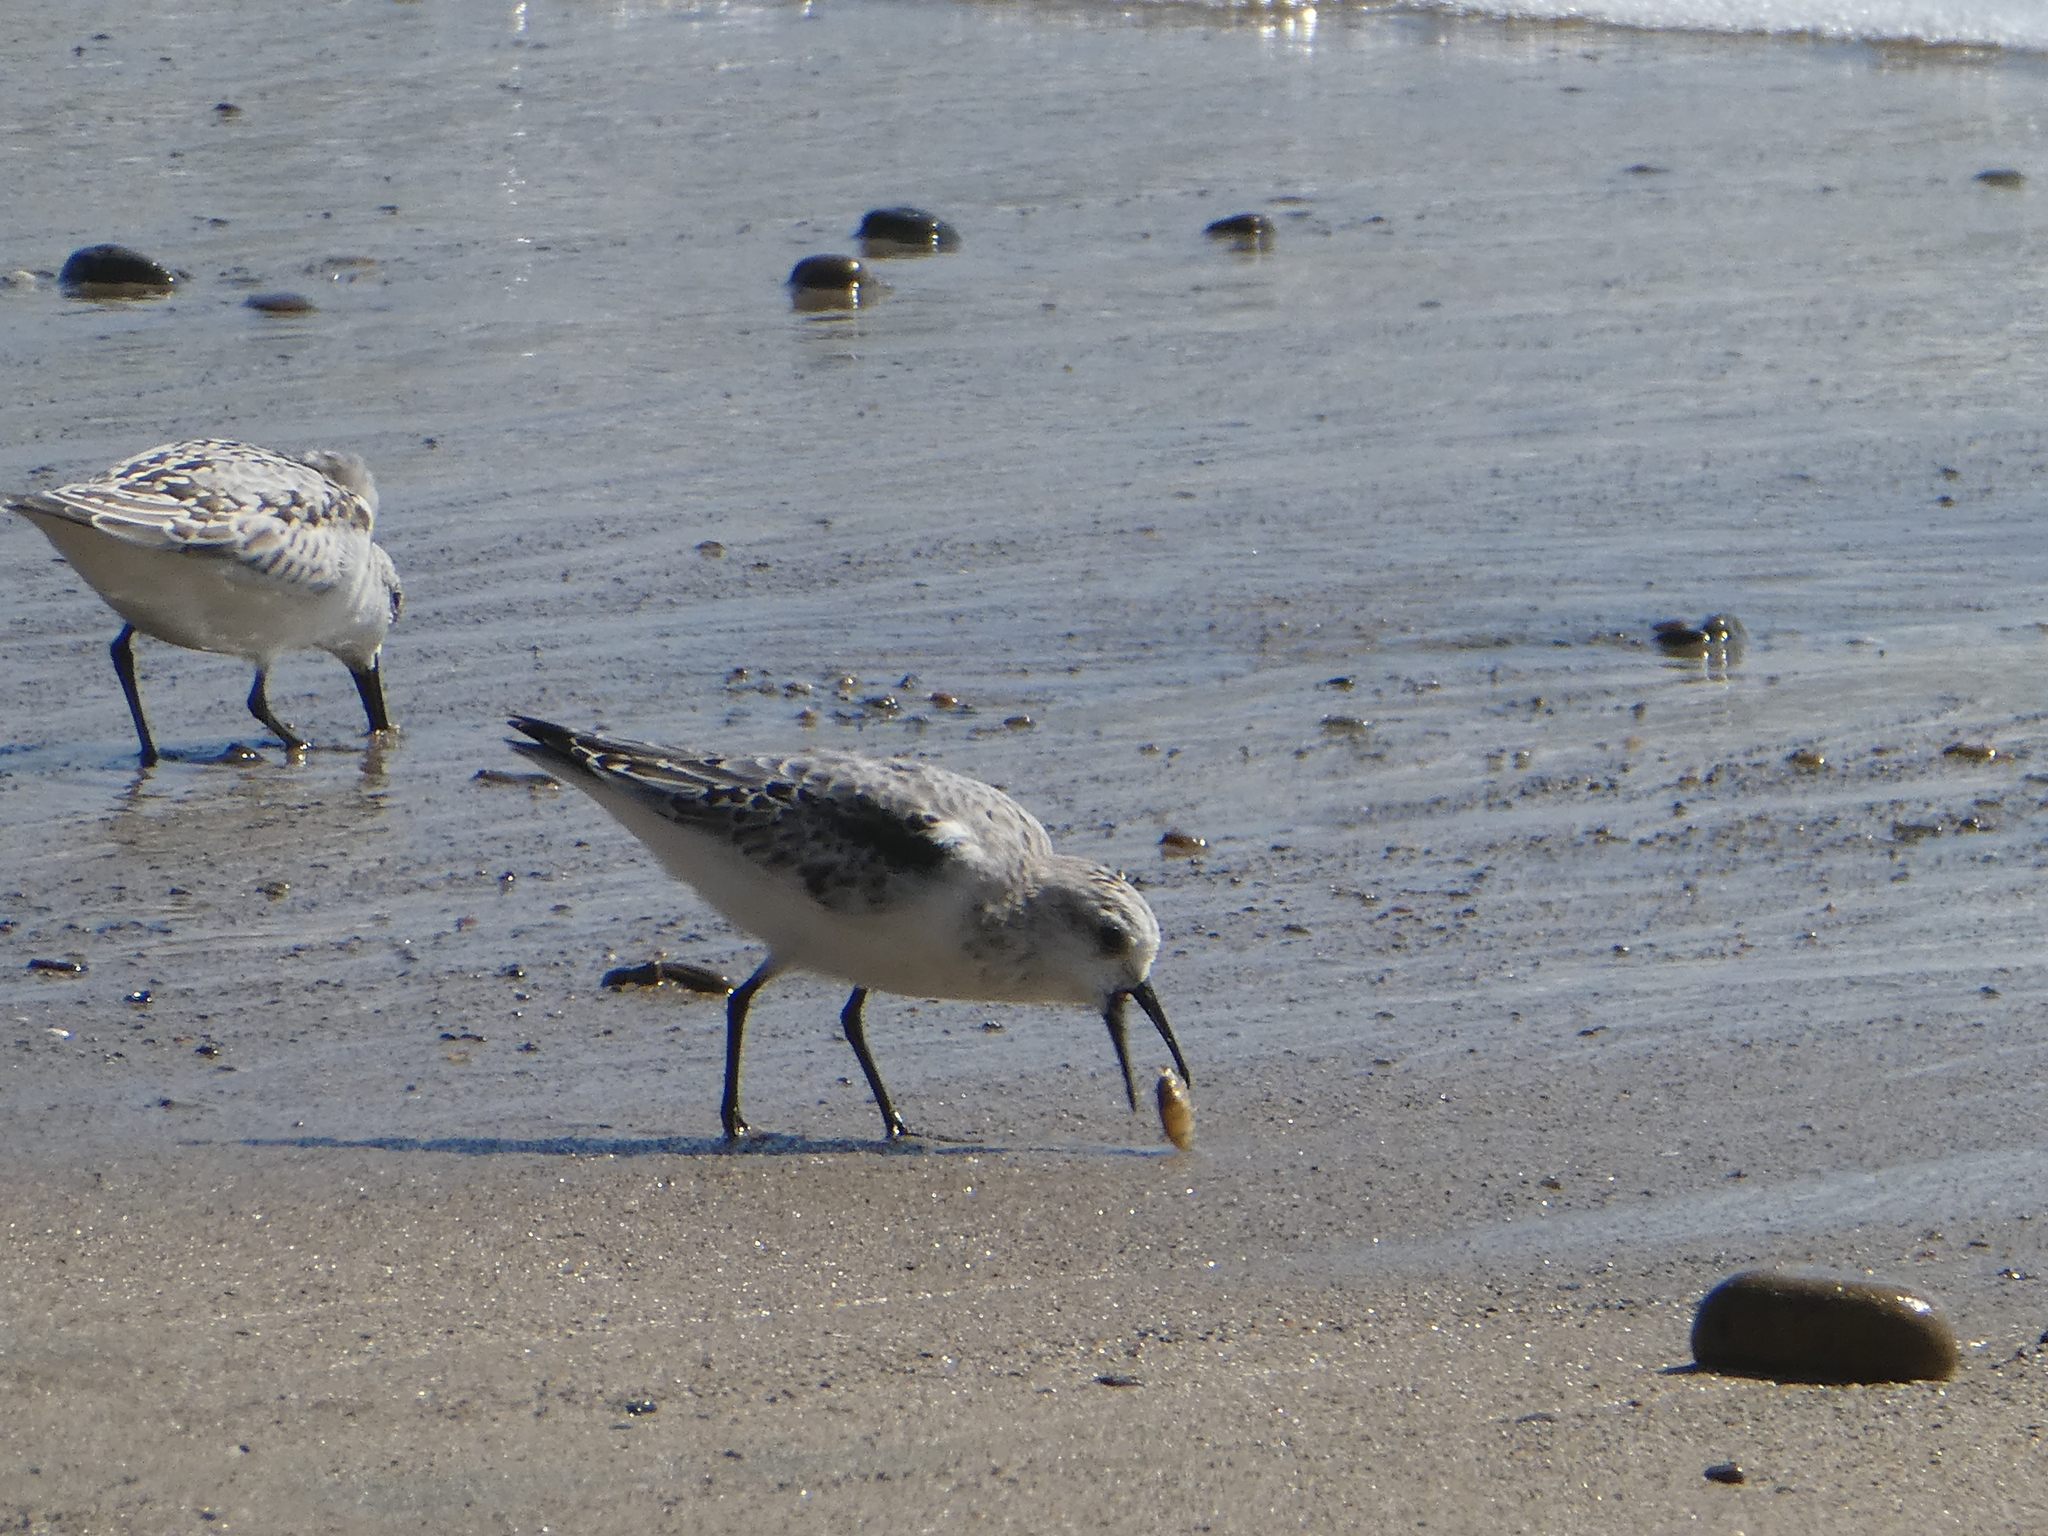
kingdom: Animalia
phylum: Chordata
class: Aves
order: Charadriiformes
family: Scolopacidae
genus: Calidris
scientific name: Calidris alba
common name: Sanderling
